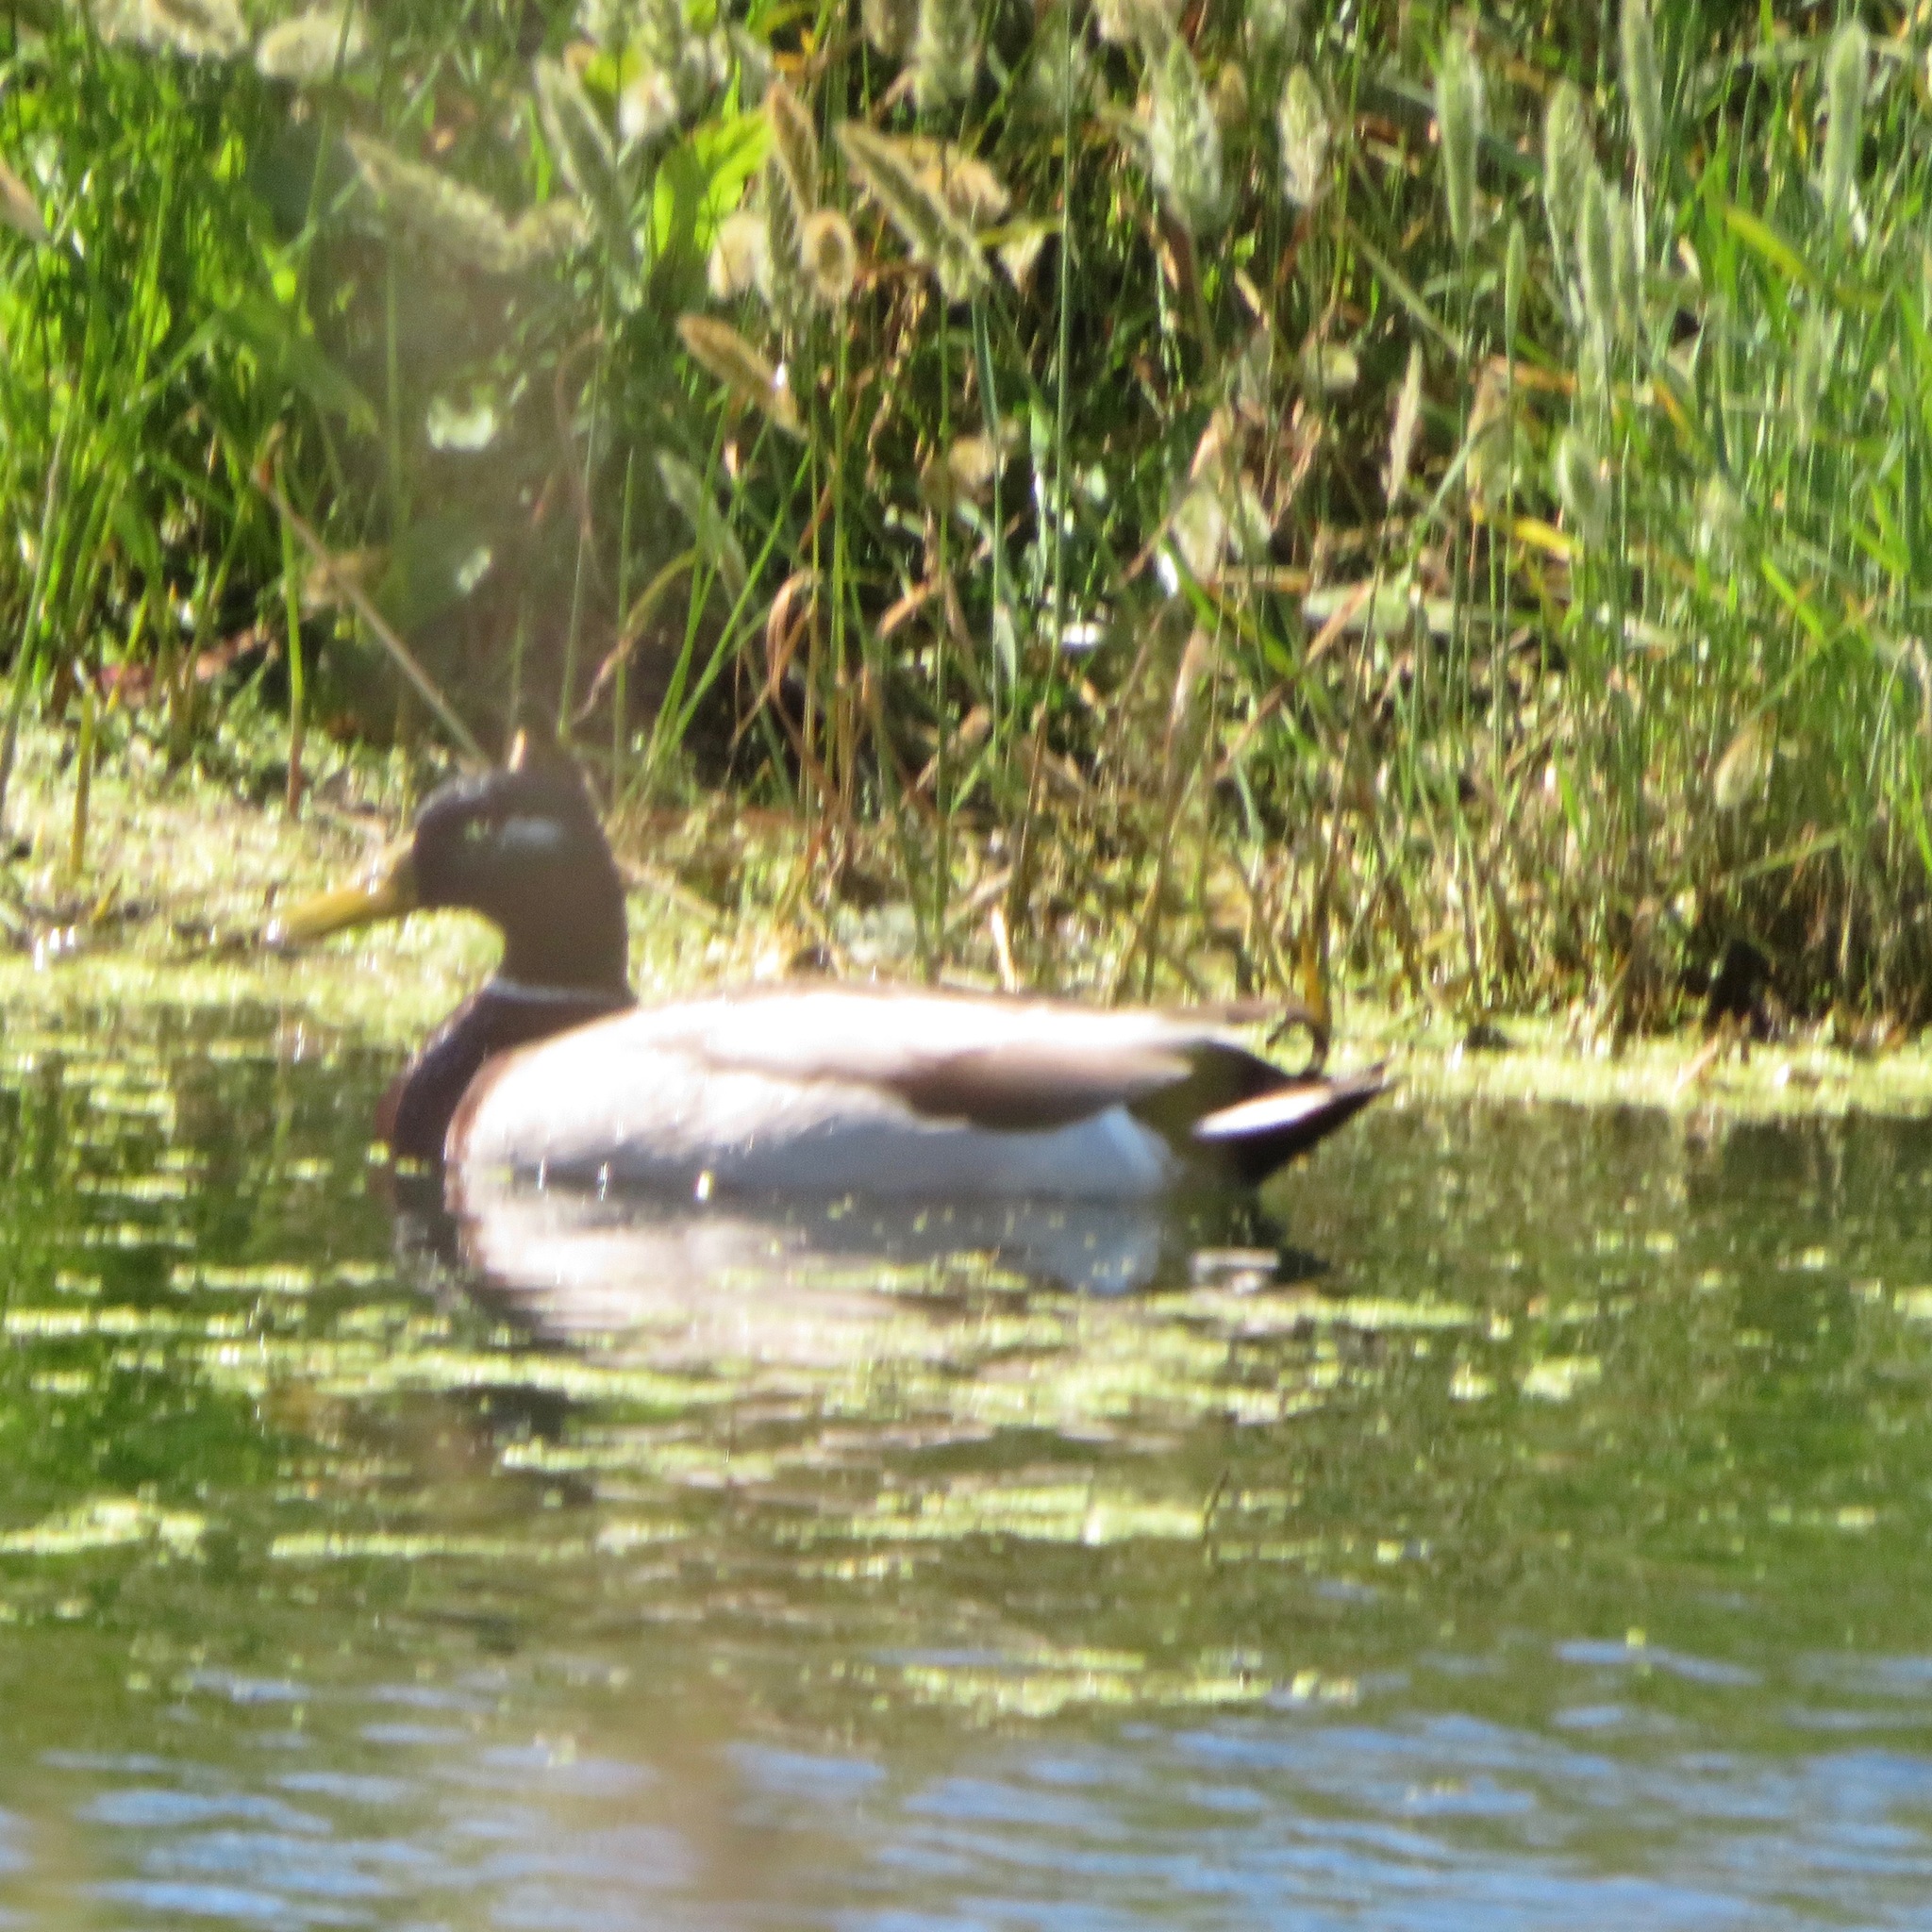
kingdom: Animalia
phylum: Chordata
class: Aves
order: Anseriformes
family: Anatidae
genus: Anas
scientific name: Anas platyrhynchos
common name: Mallard
